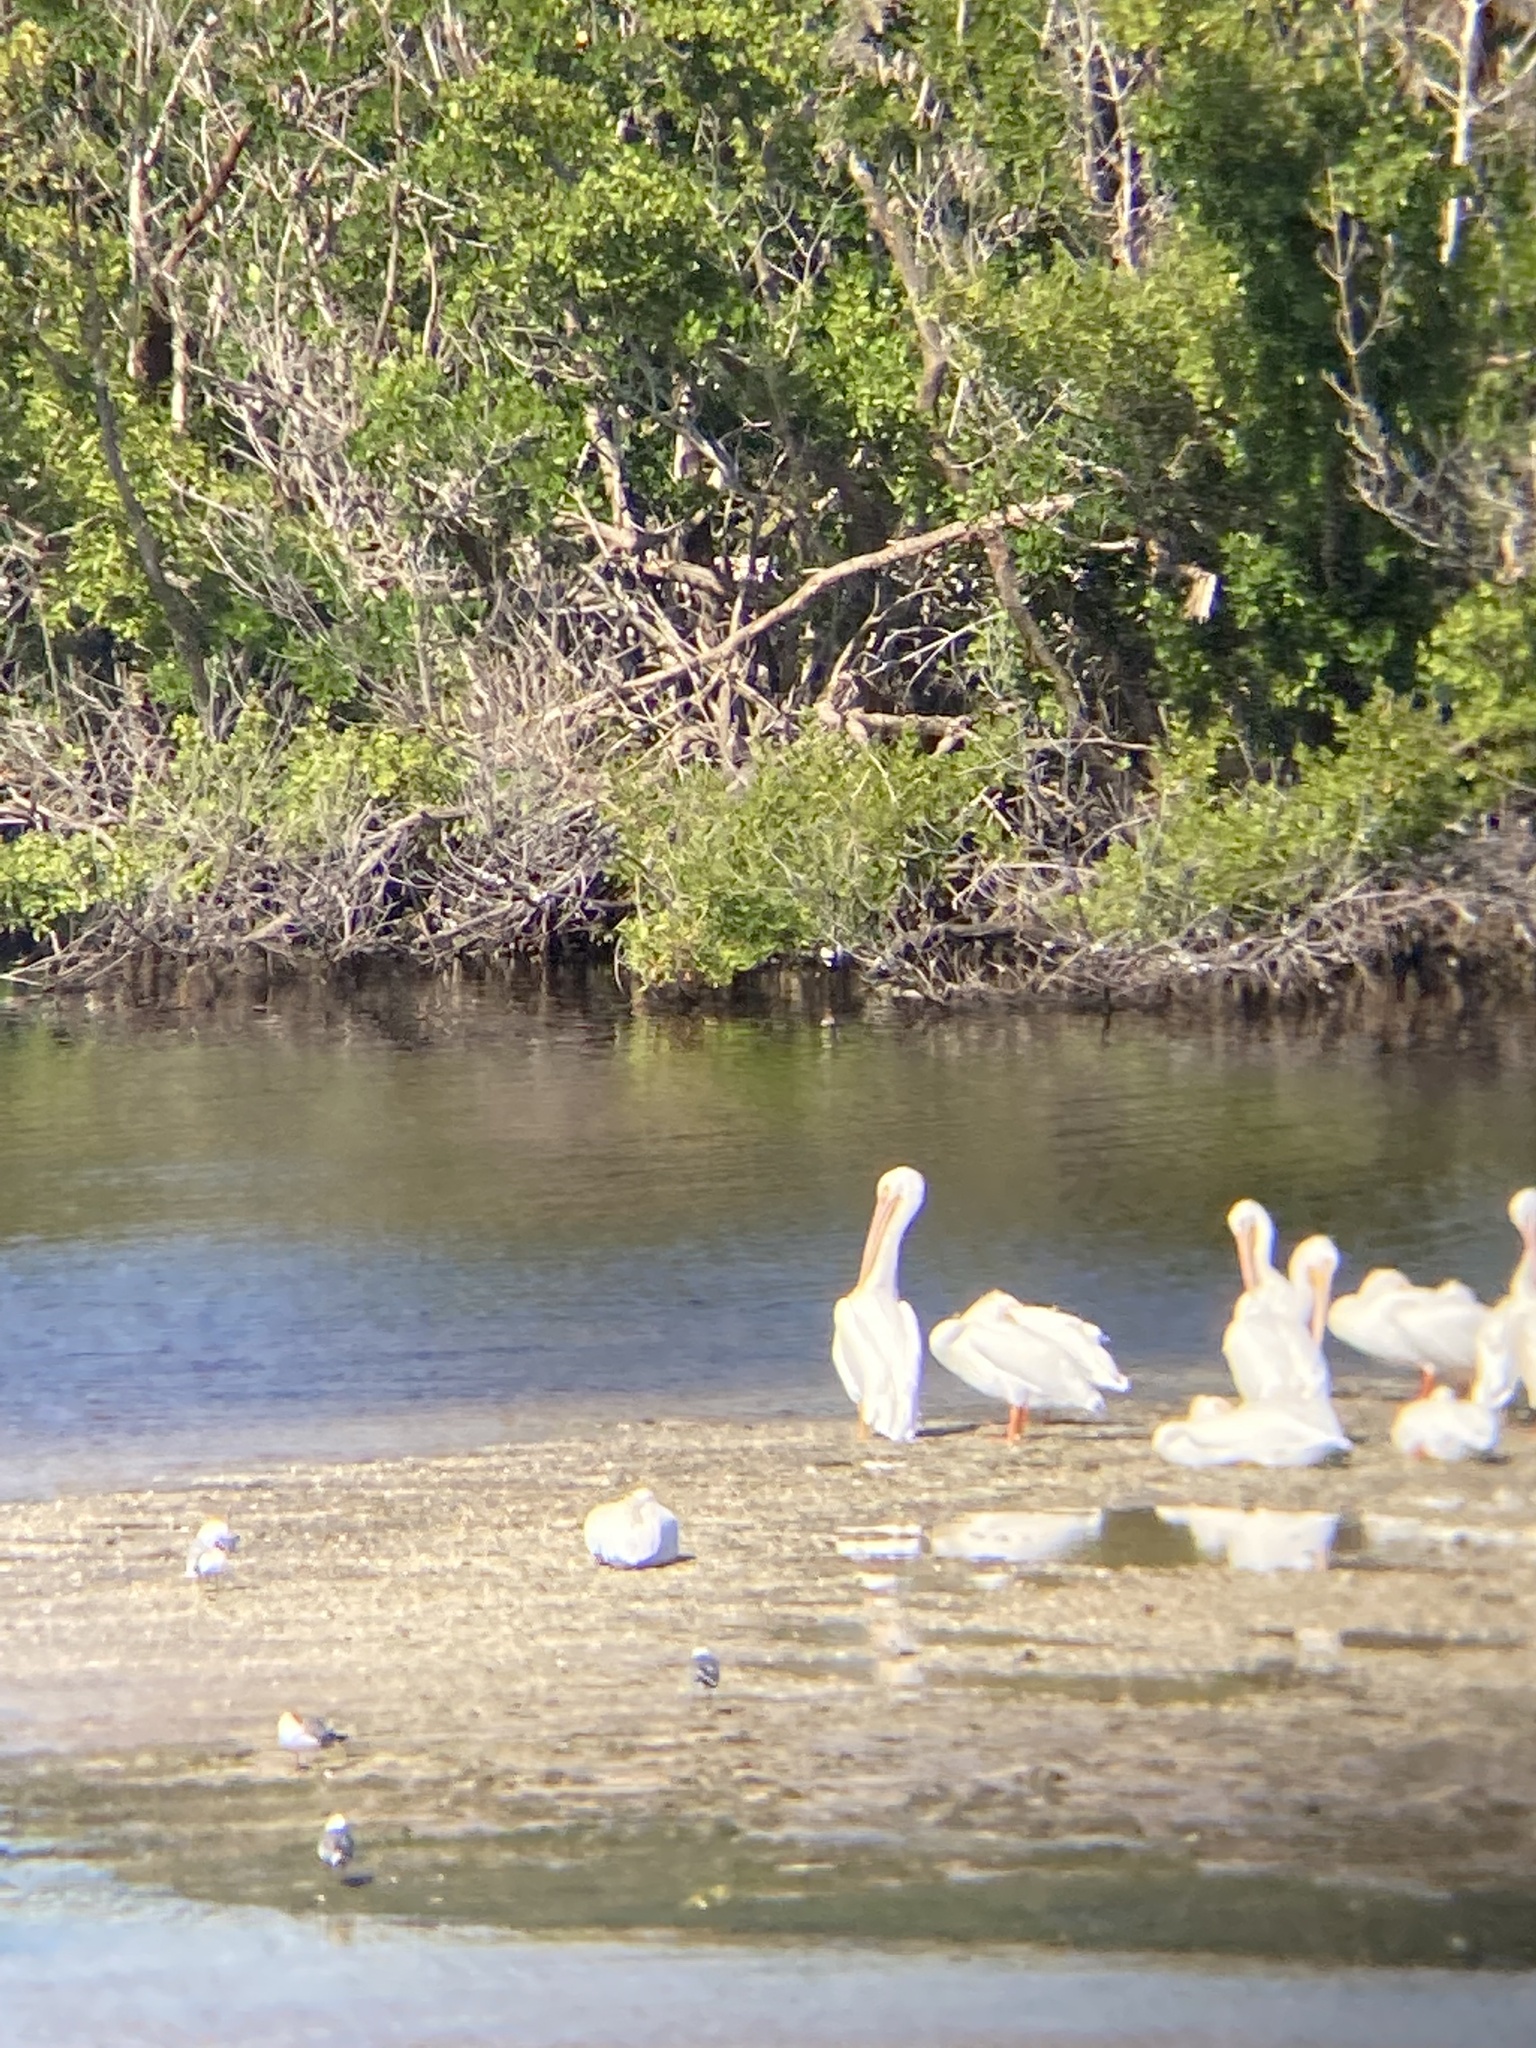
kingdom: Animalia
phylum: Chordata
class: Aves
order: Pelecaniformes
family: Pelecanidae
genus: Pelecanus
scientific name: Pelecanus erythrorhynchos
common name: American white pelican
